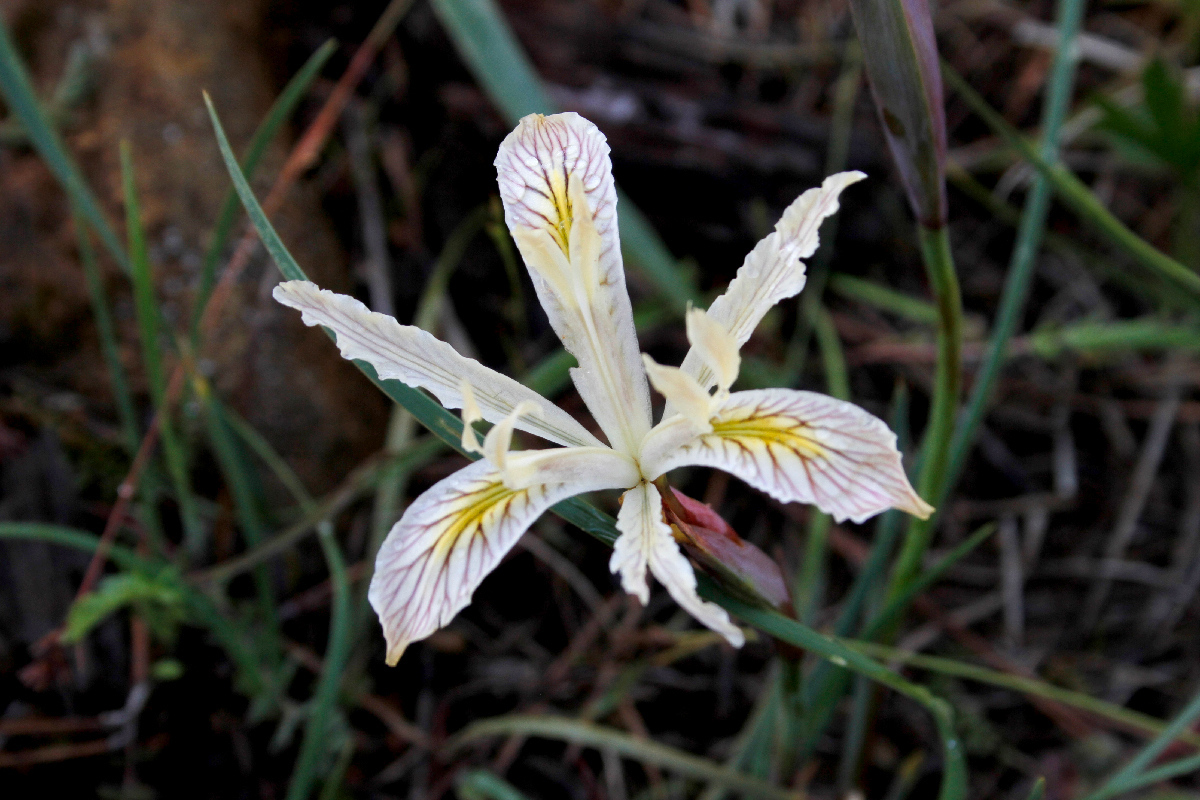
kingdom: Plantae
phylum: Tracheophyta
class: Liliopsida
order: Asparagales
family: Iridaceae
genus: Iris
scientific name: Iris chrysophylla
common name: Yellow-leaf iris
